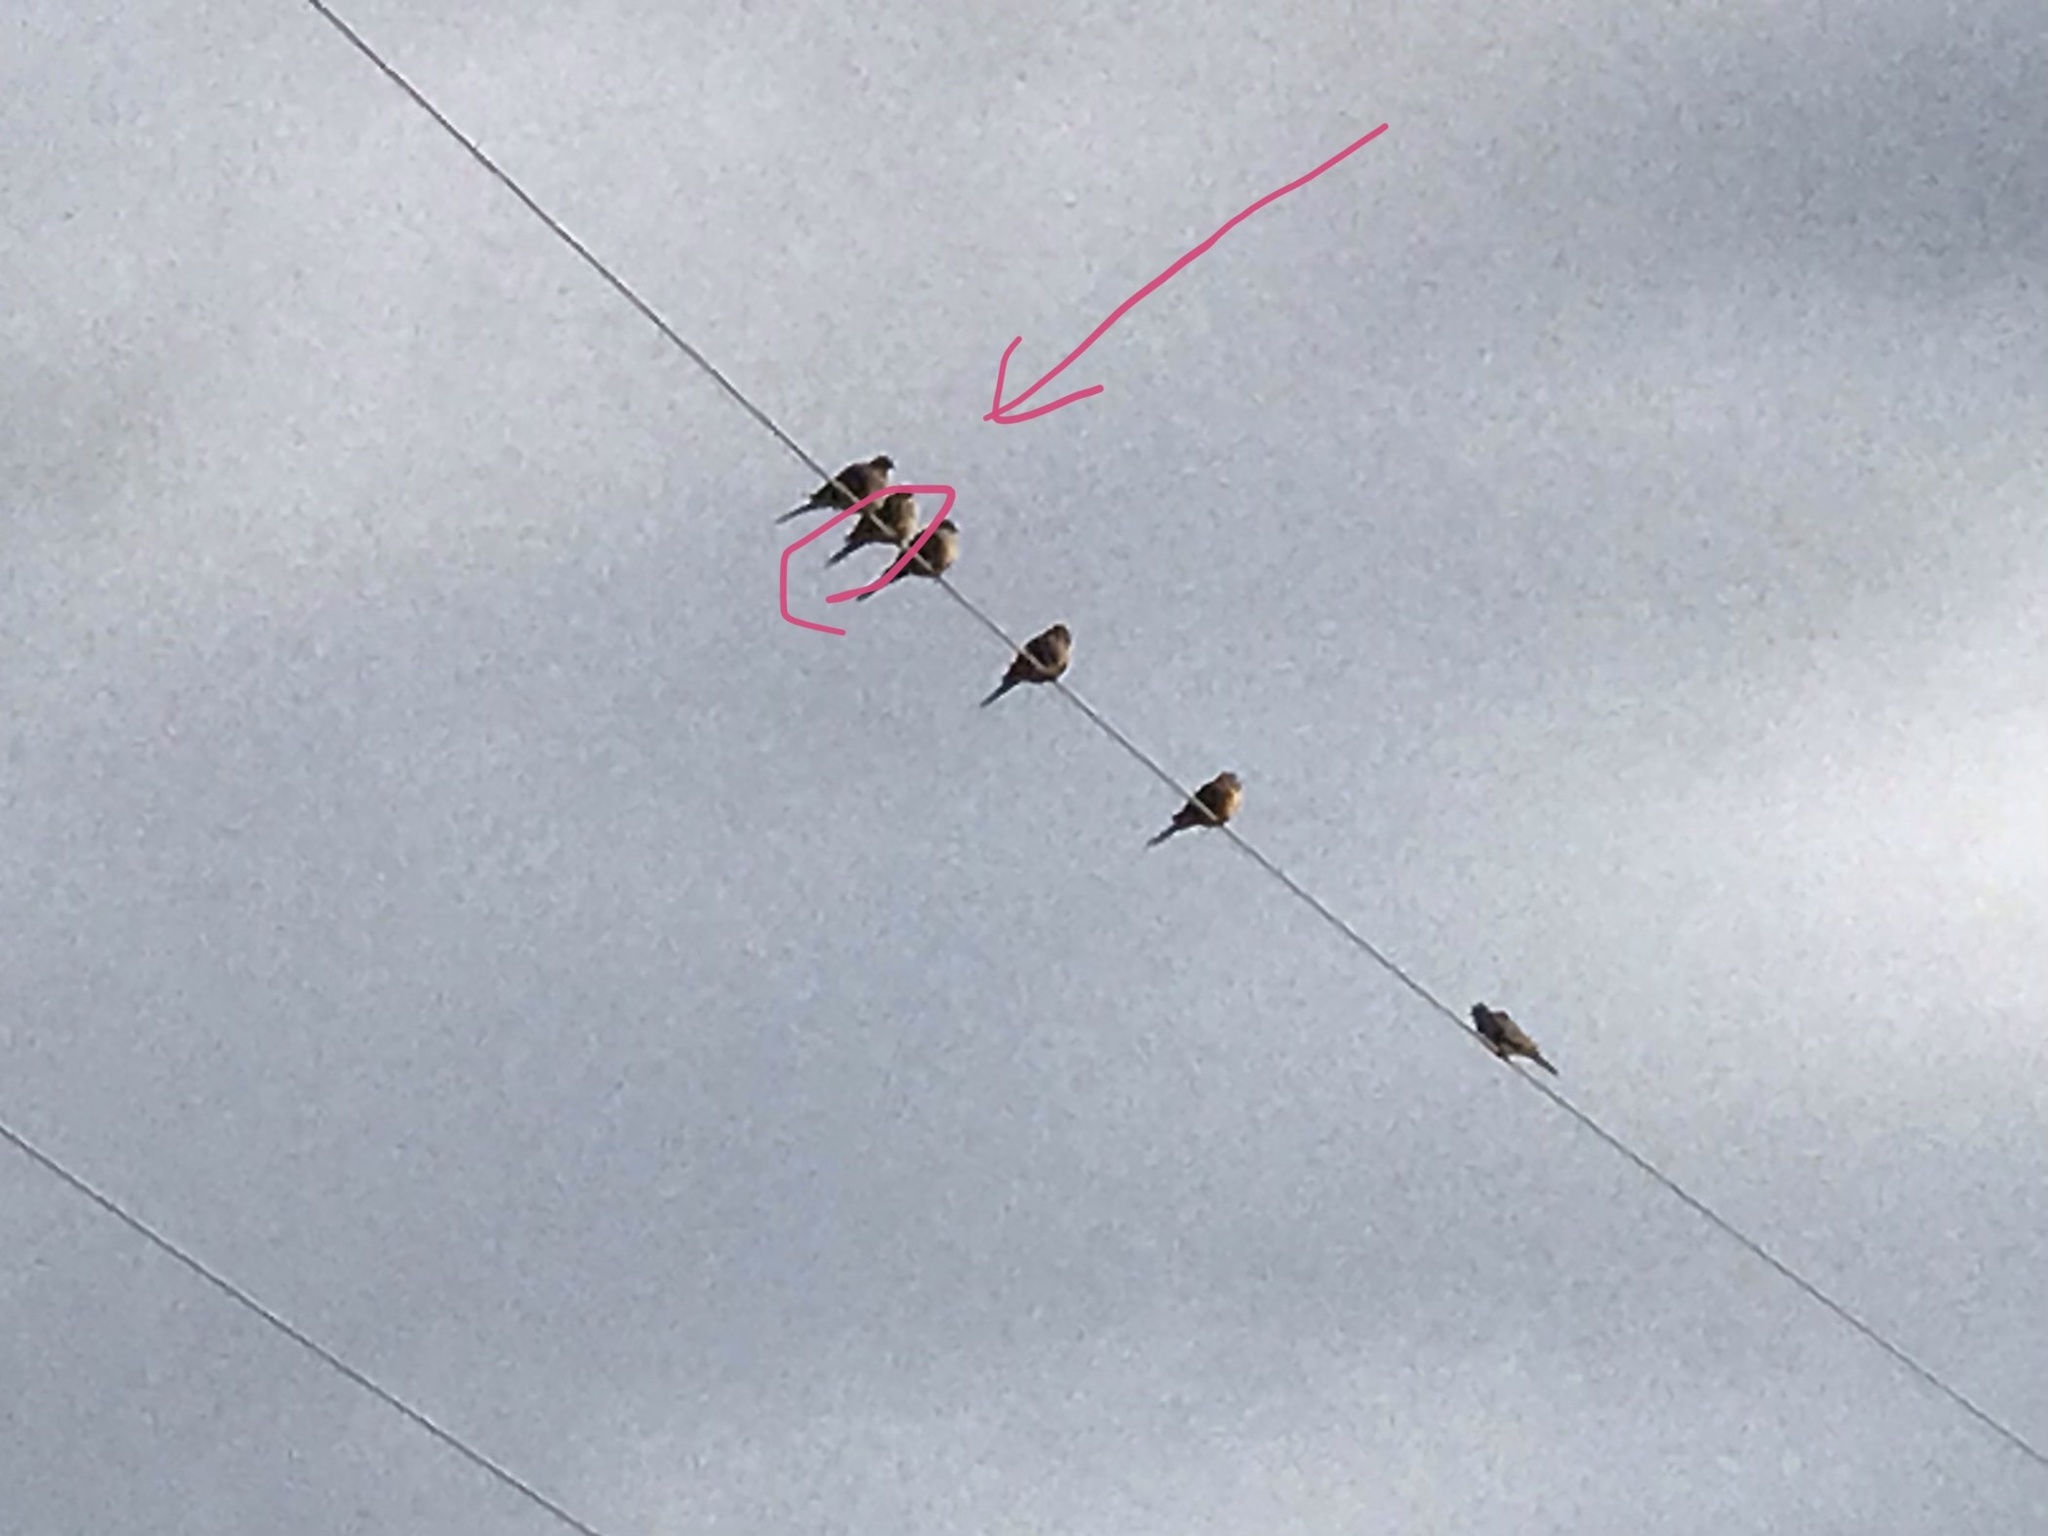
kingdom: Animalia
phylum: Chordata
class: Aves
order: Columbiformes
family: Columbidae
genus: Zenaida
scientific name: Zenaida macroura
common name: Mourning dove
